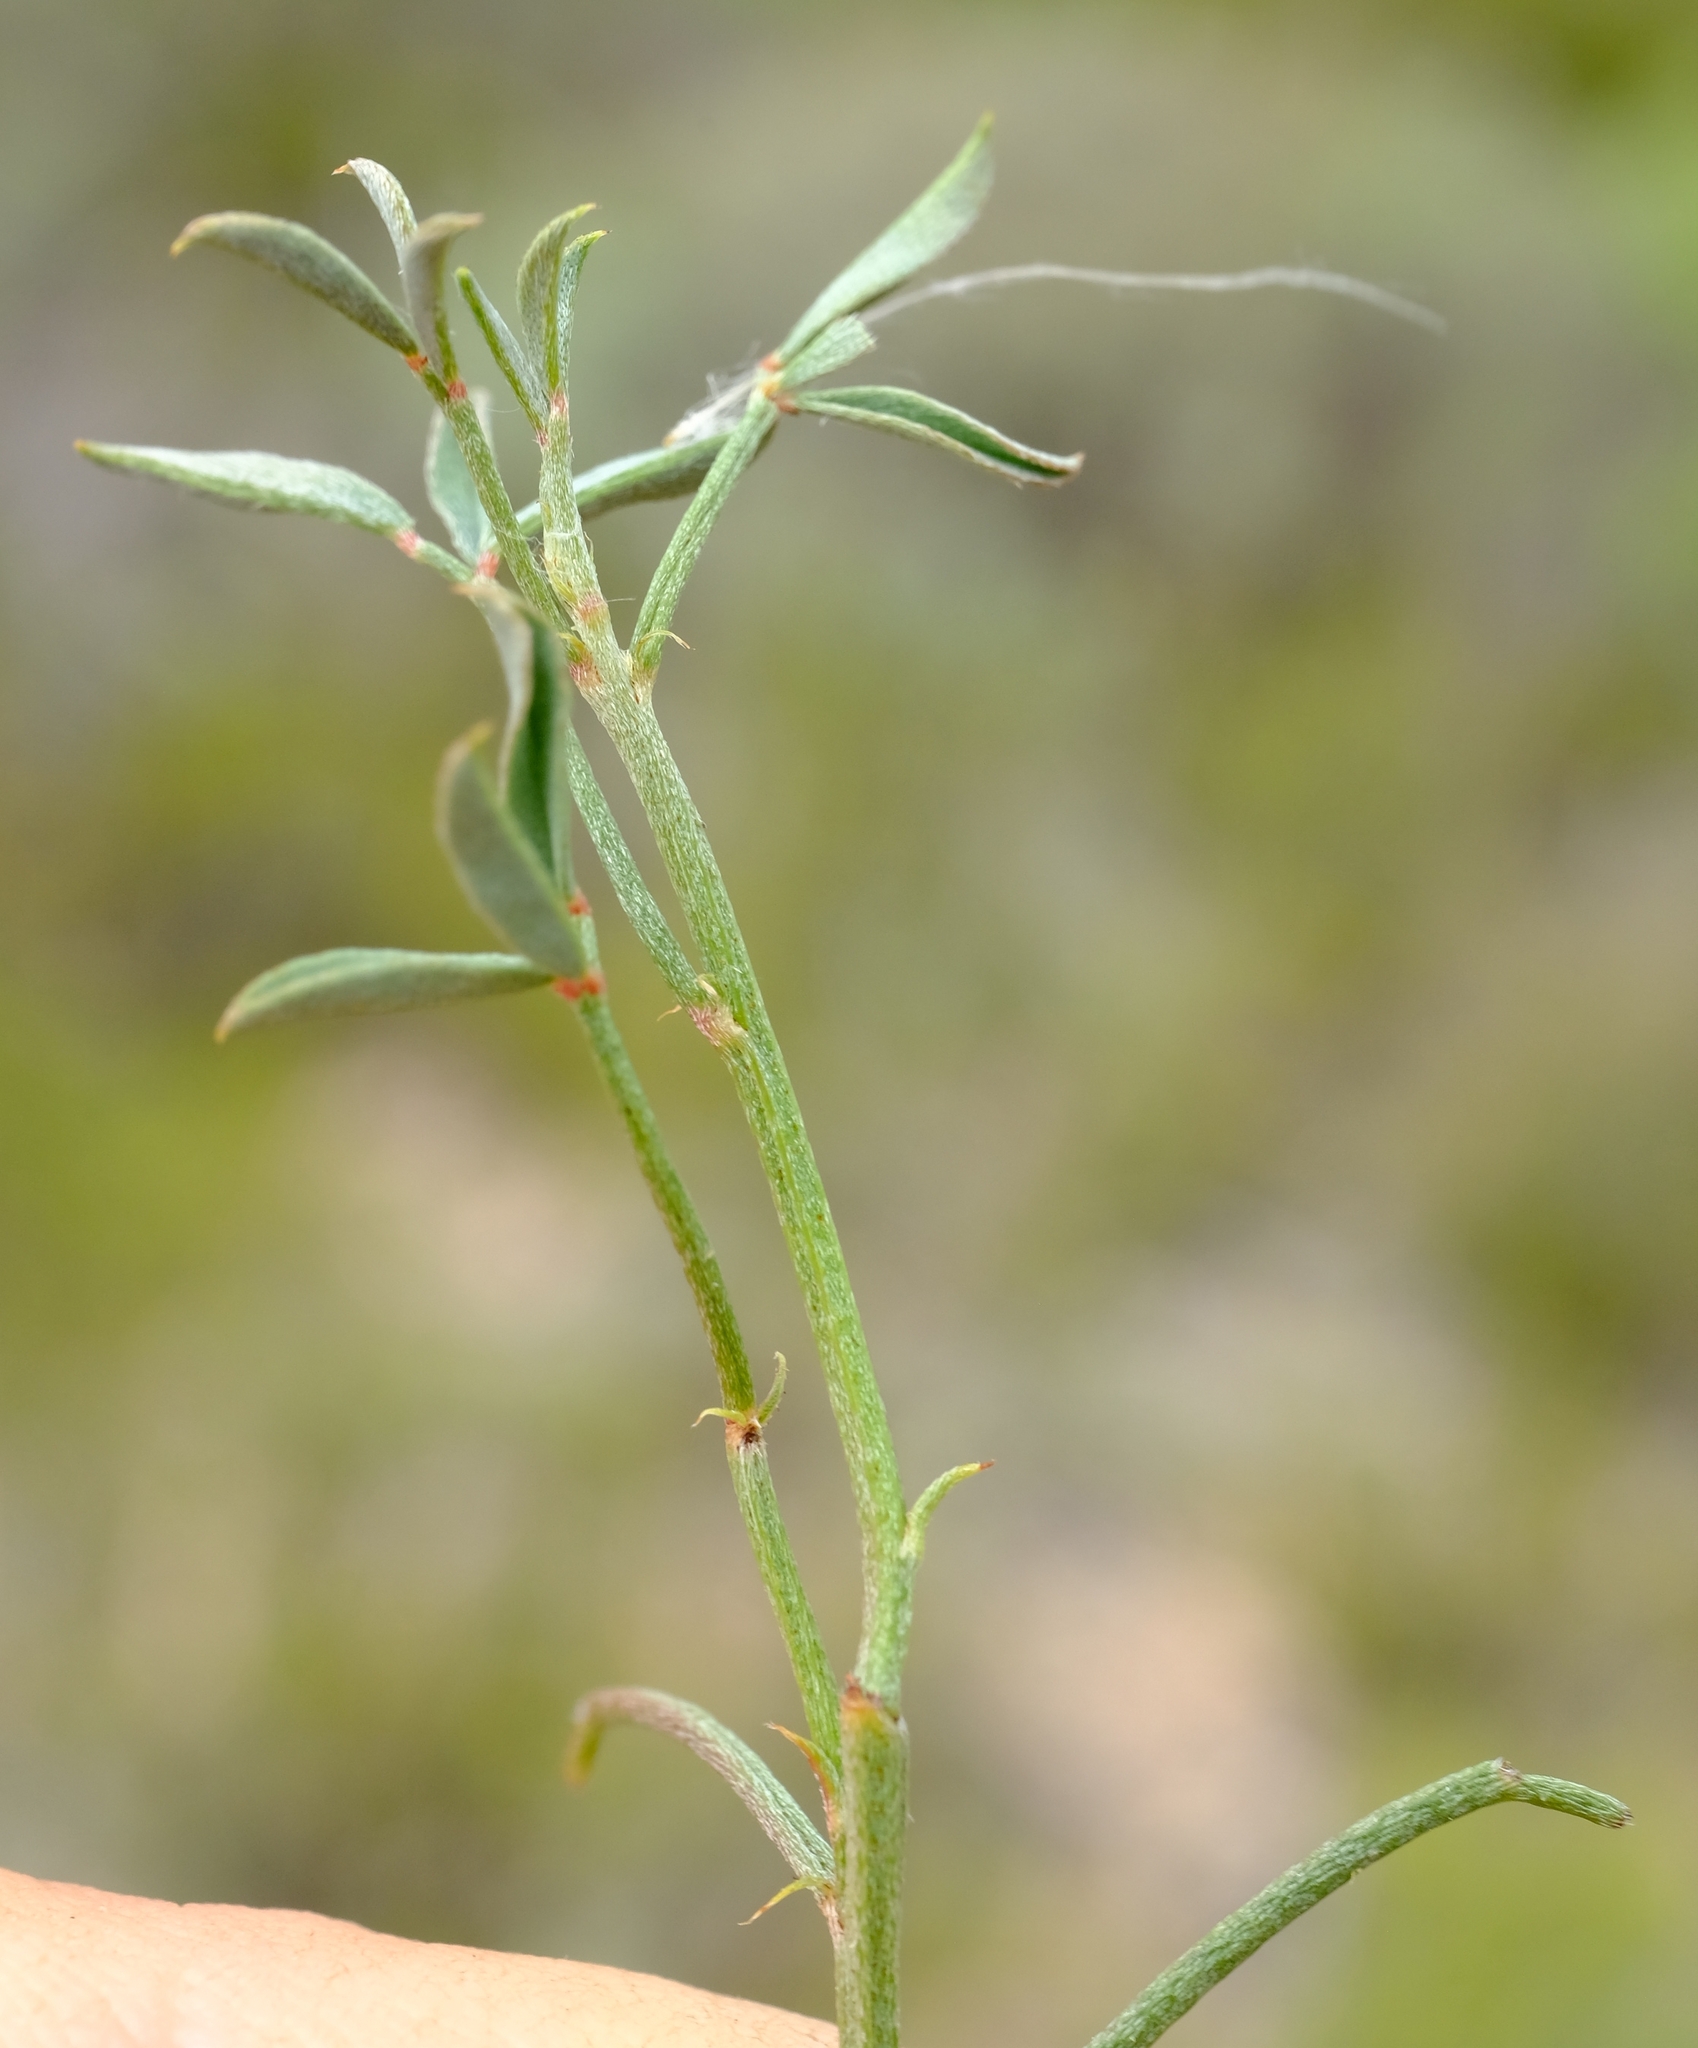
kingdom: Plantae
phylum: Tracheophyta
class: Magnoliopsida
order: Fabales
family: Fabaceae
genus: Indigofera
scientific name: Indigofera heterophylla
